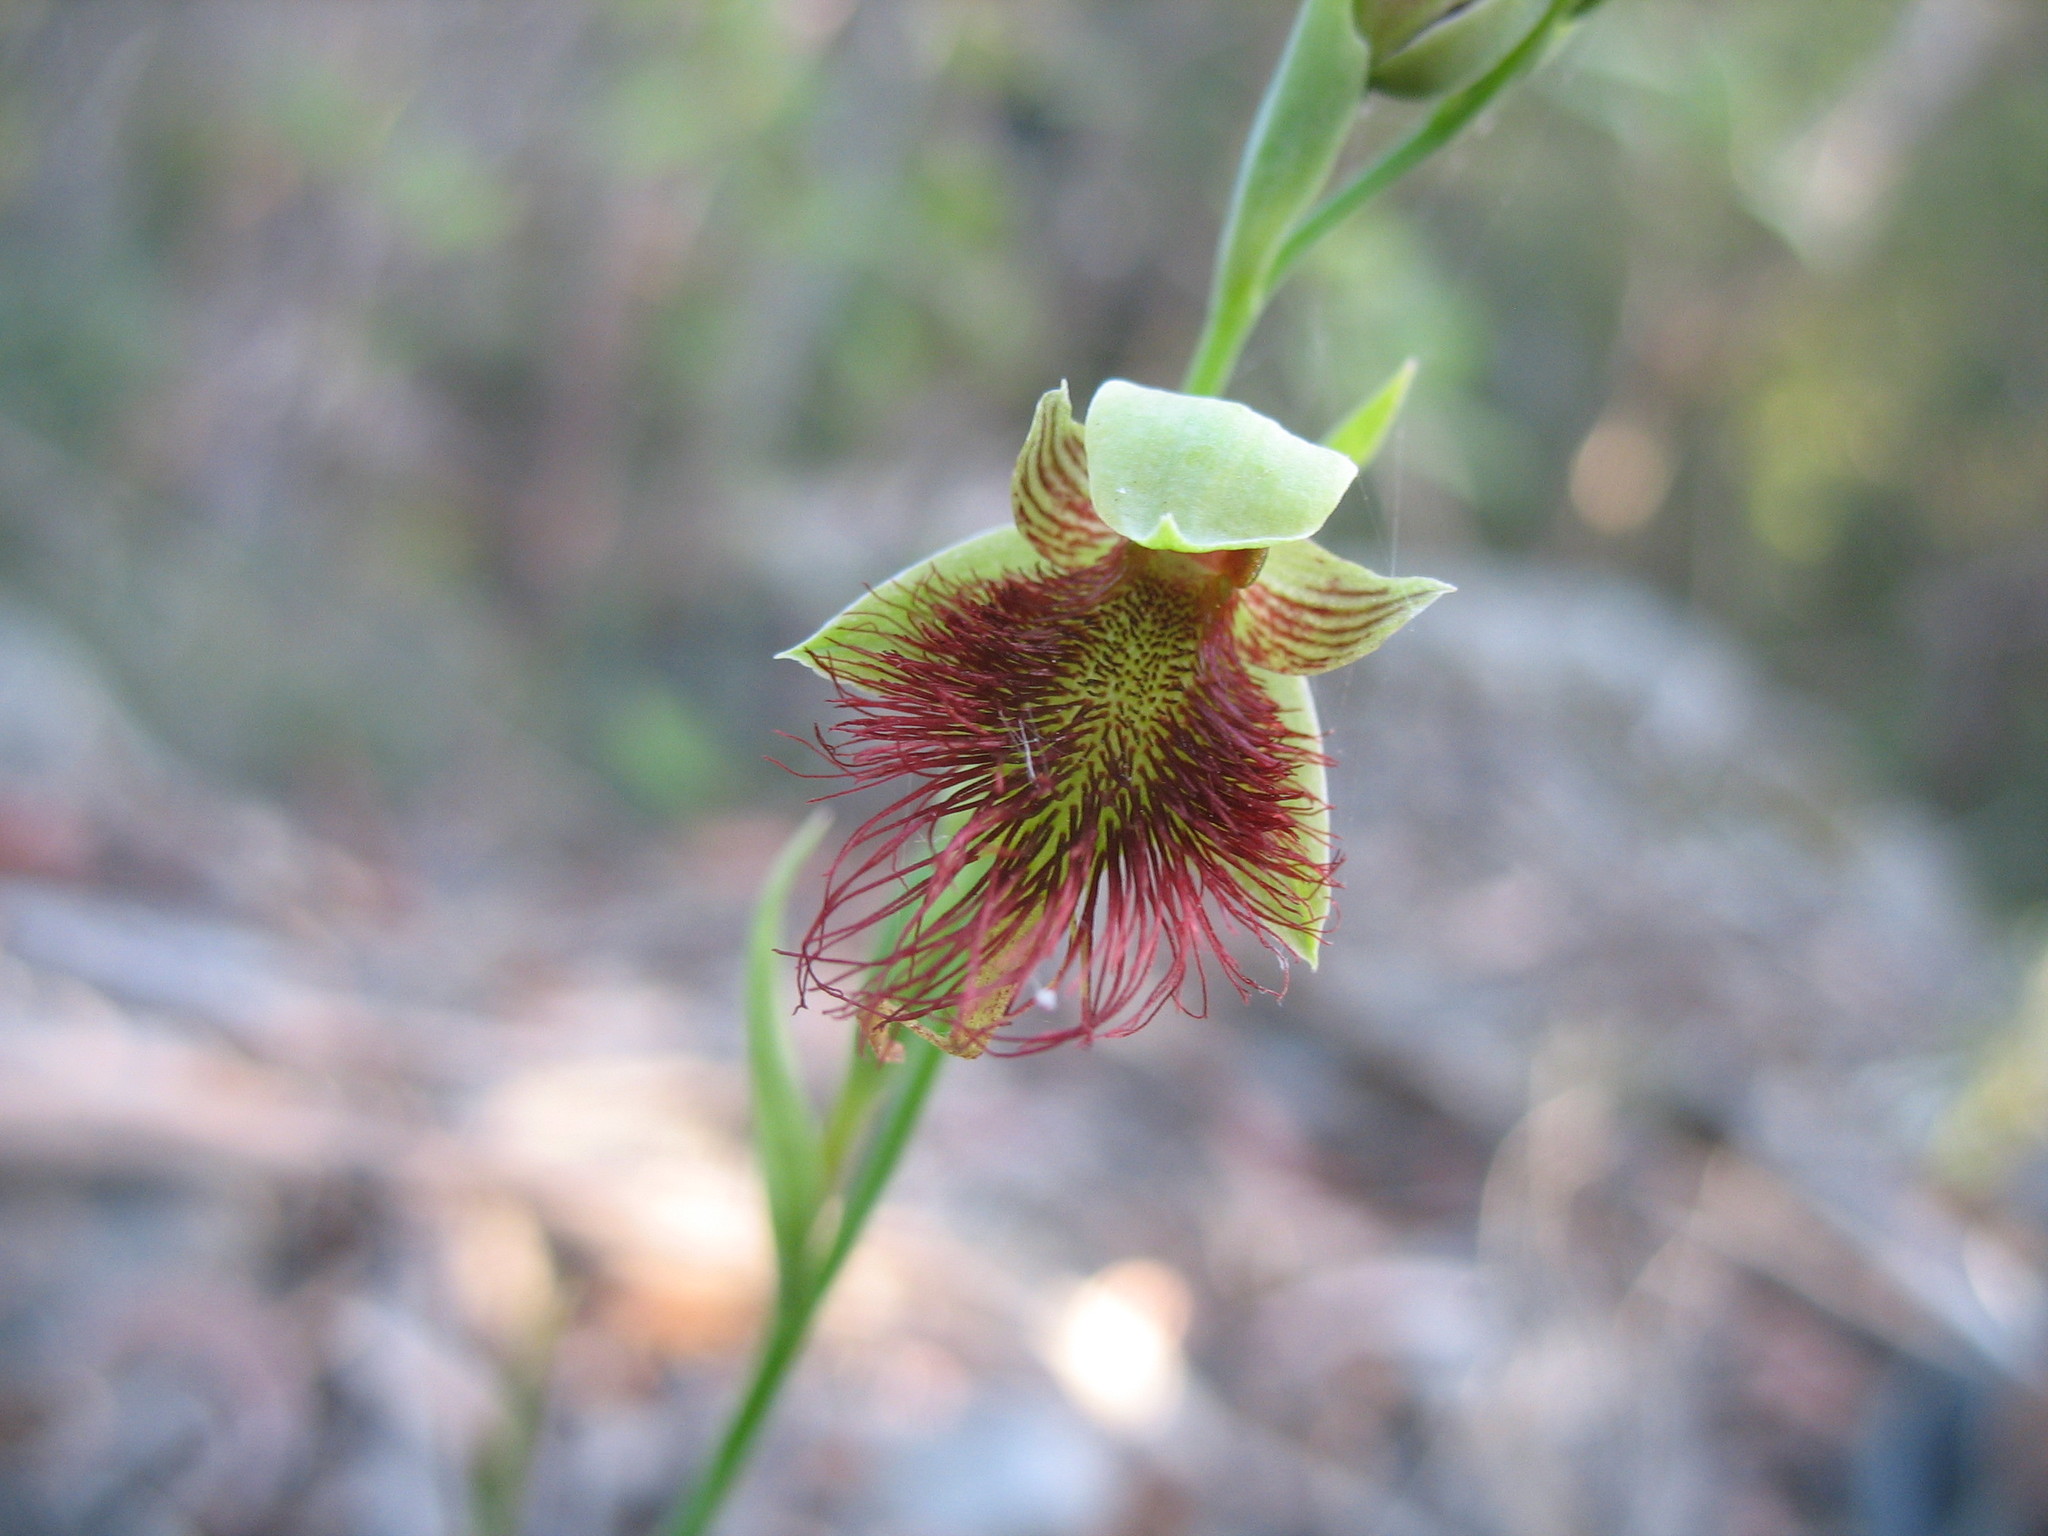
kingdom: Plantae
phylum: Tracheophyta
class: Liliopsida
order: Asparagales
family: Orchidaceae
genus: Calochilus
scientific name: Calochilus paludosus
